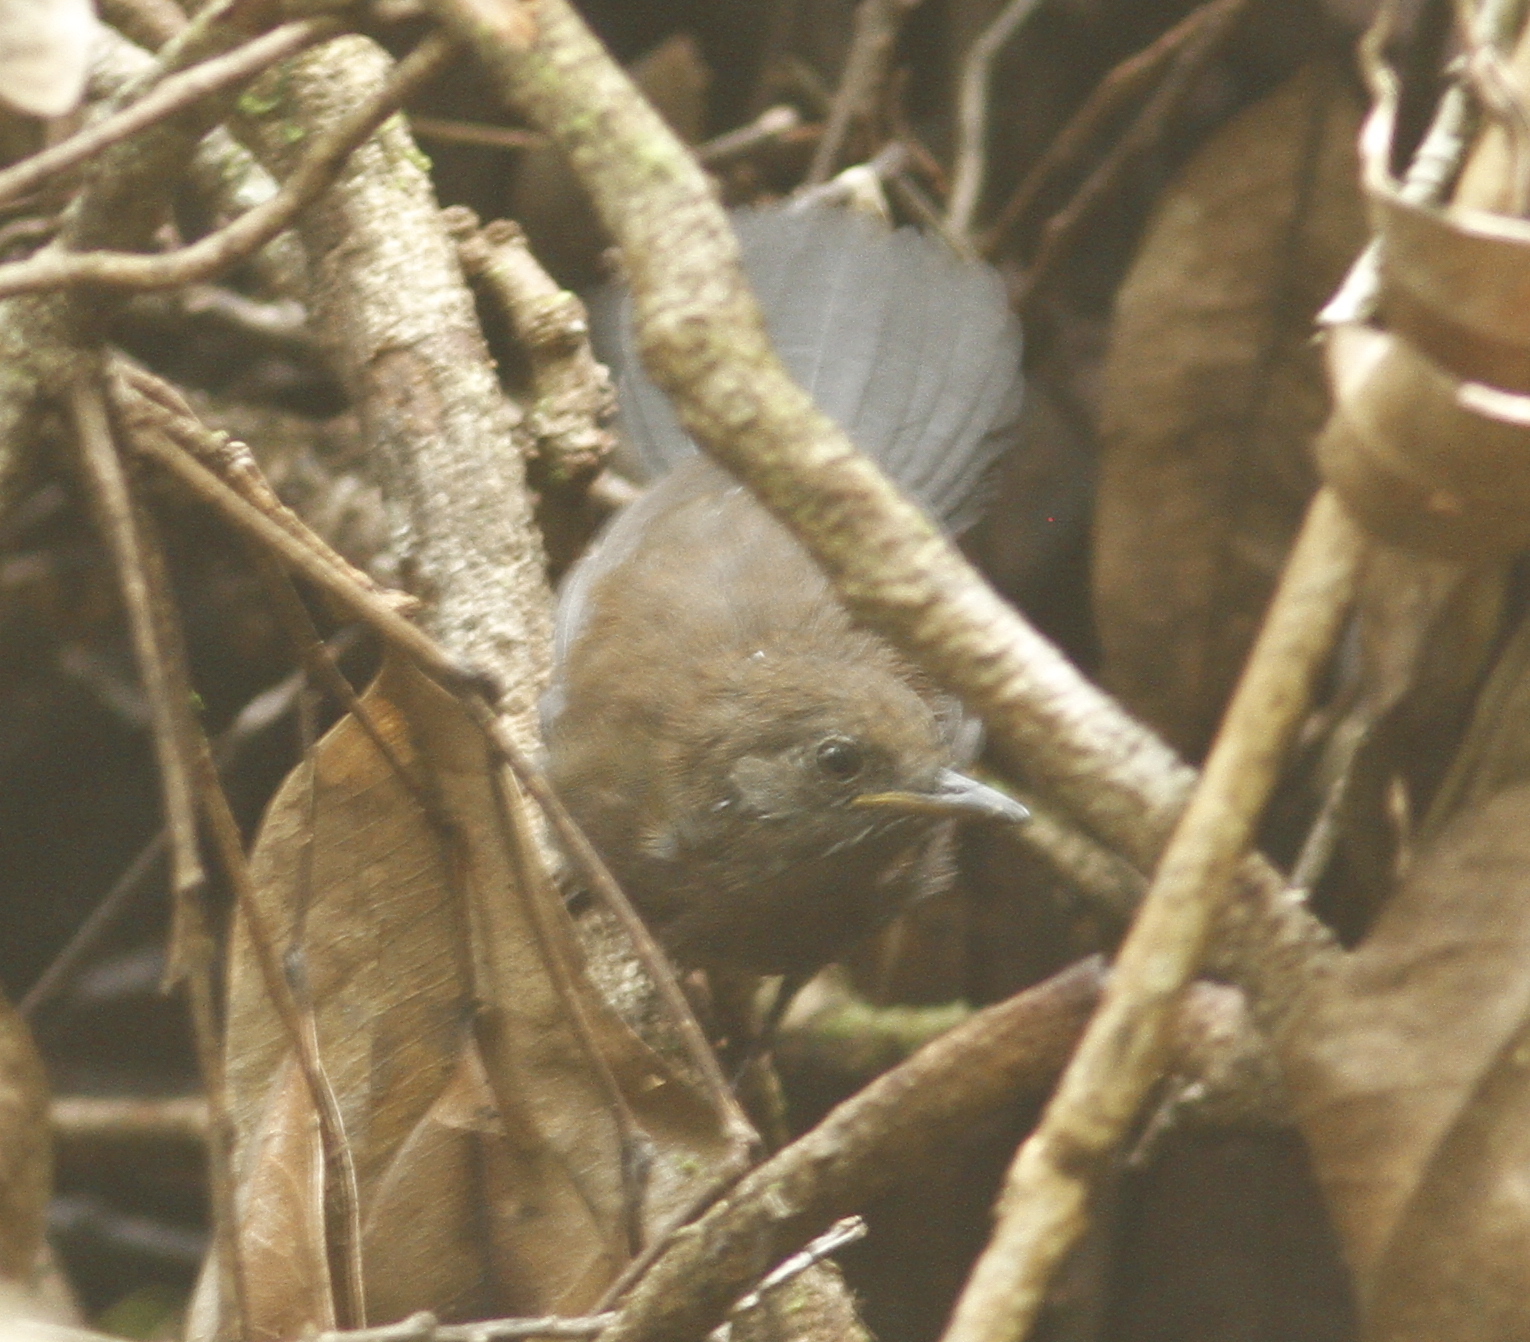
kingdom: Animalia
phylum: Chordata
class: Aves
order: Passeriformes
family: Thamnophilidae
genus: Myrmeciza
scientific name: Myrmeciza atrothorax
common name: Black-throated antbird
